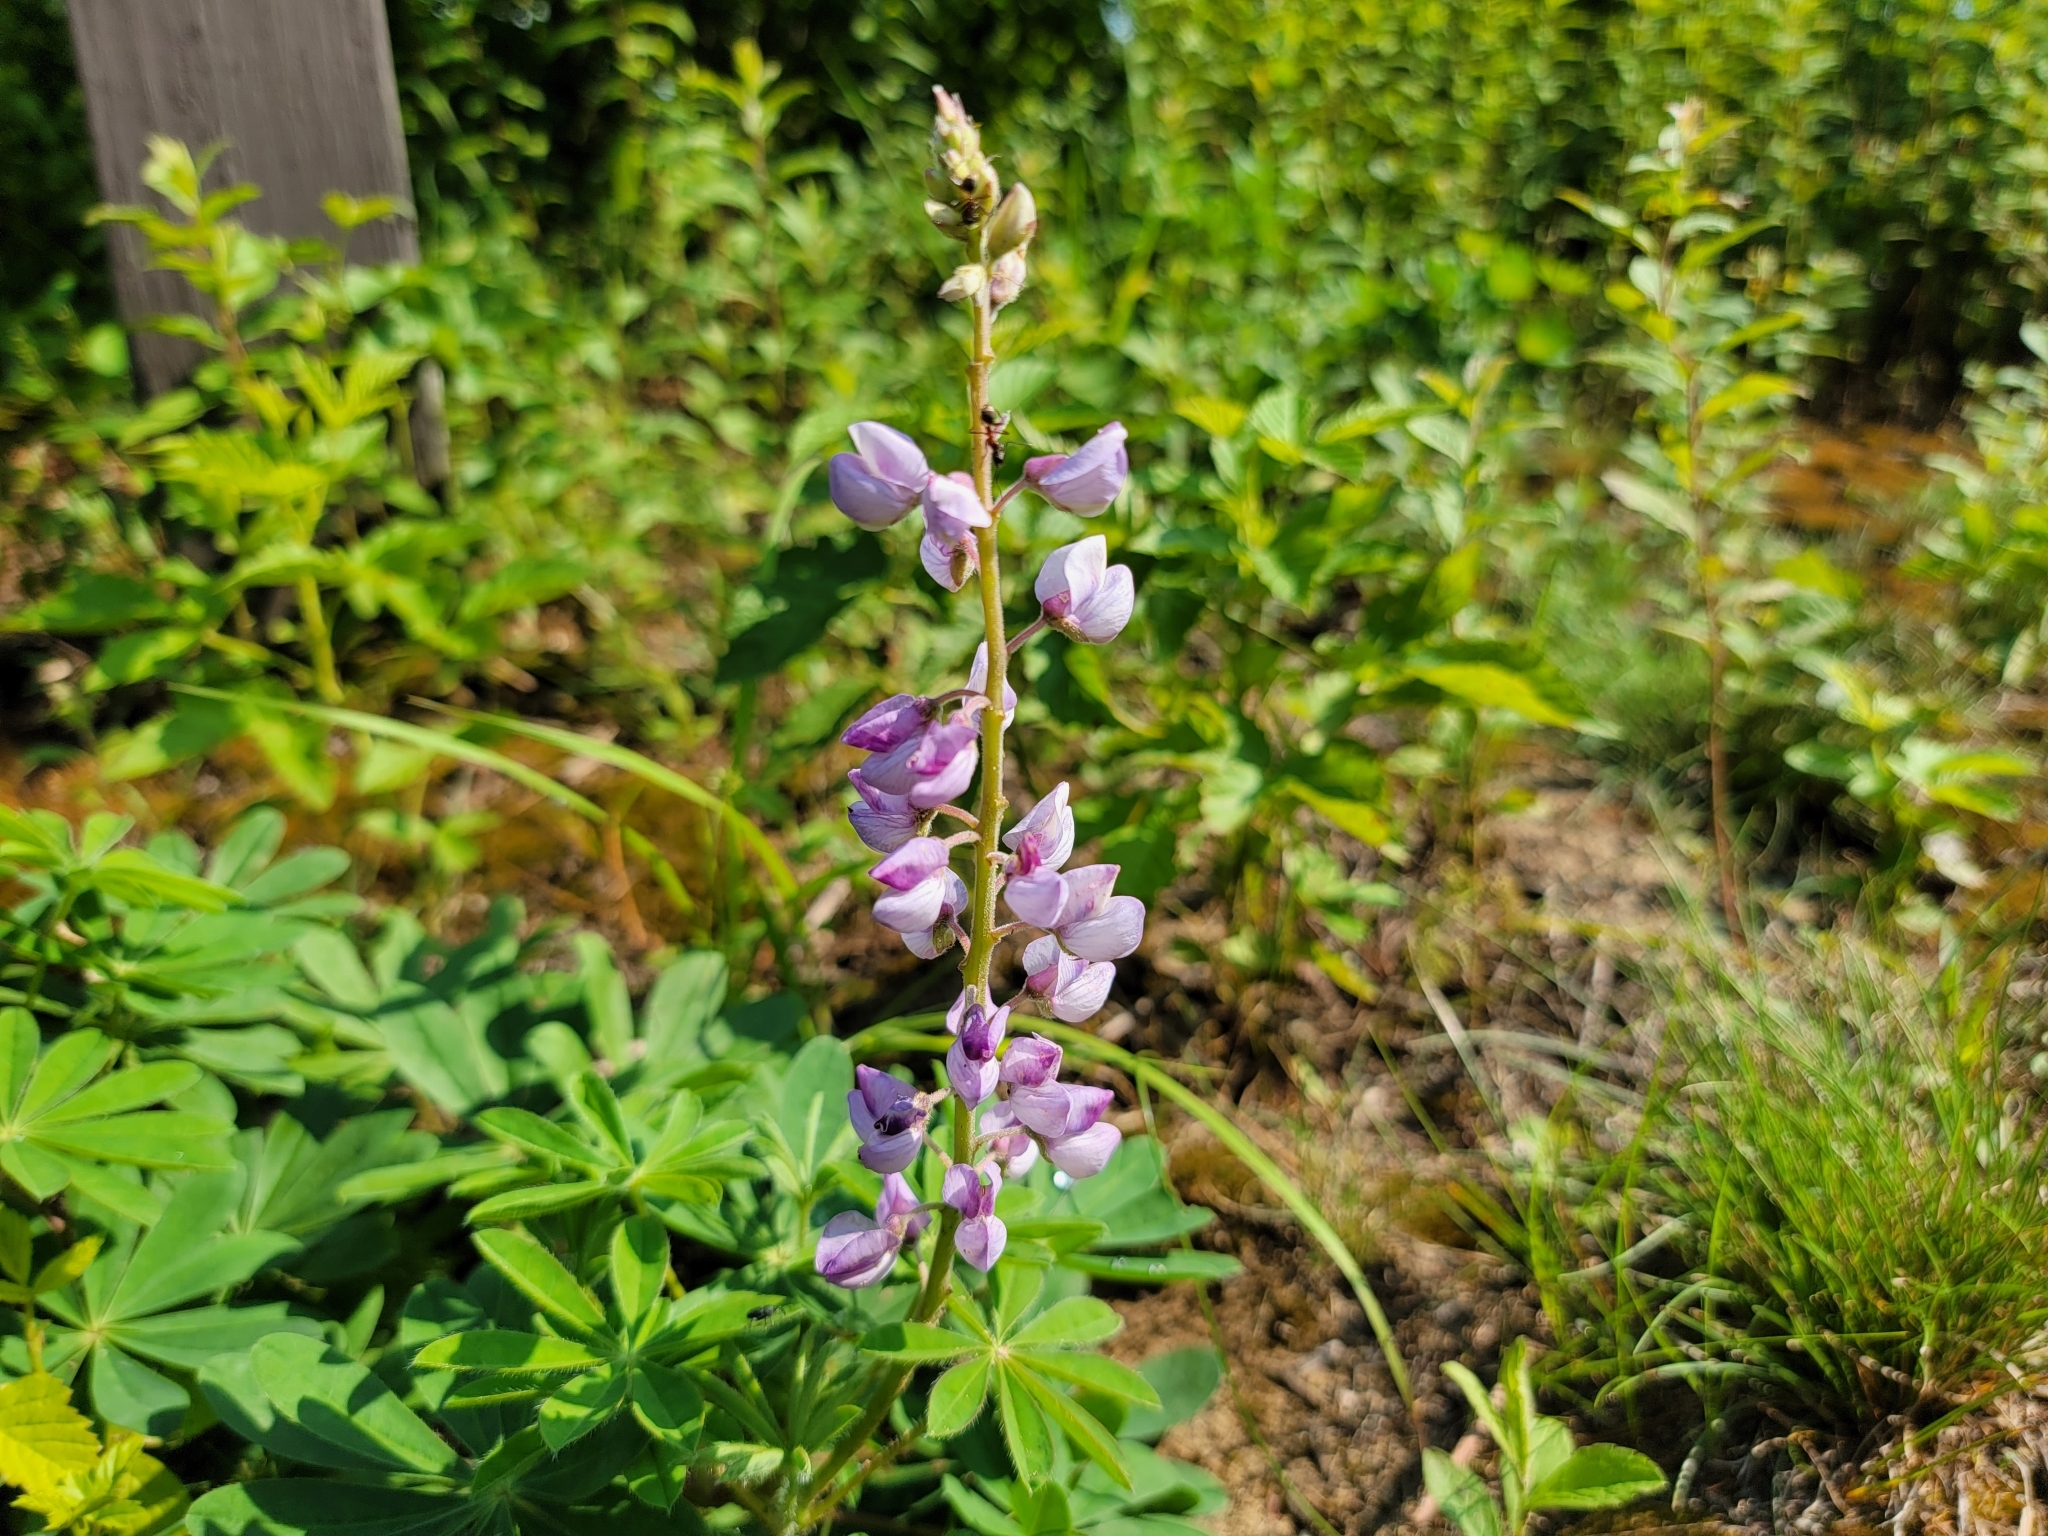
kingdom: Plantae
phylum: Tracheophyta
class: Magnoliopsida
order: Fabales
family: Fabaceae
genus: Lupinus
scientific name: Lupinus perennis
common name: Sundial lupine
